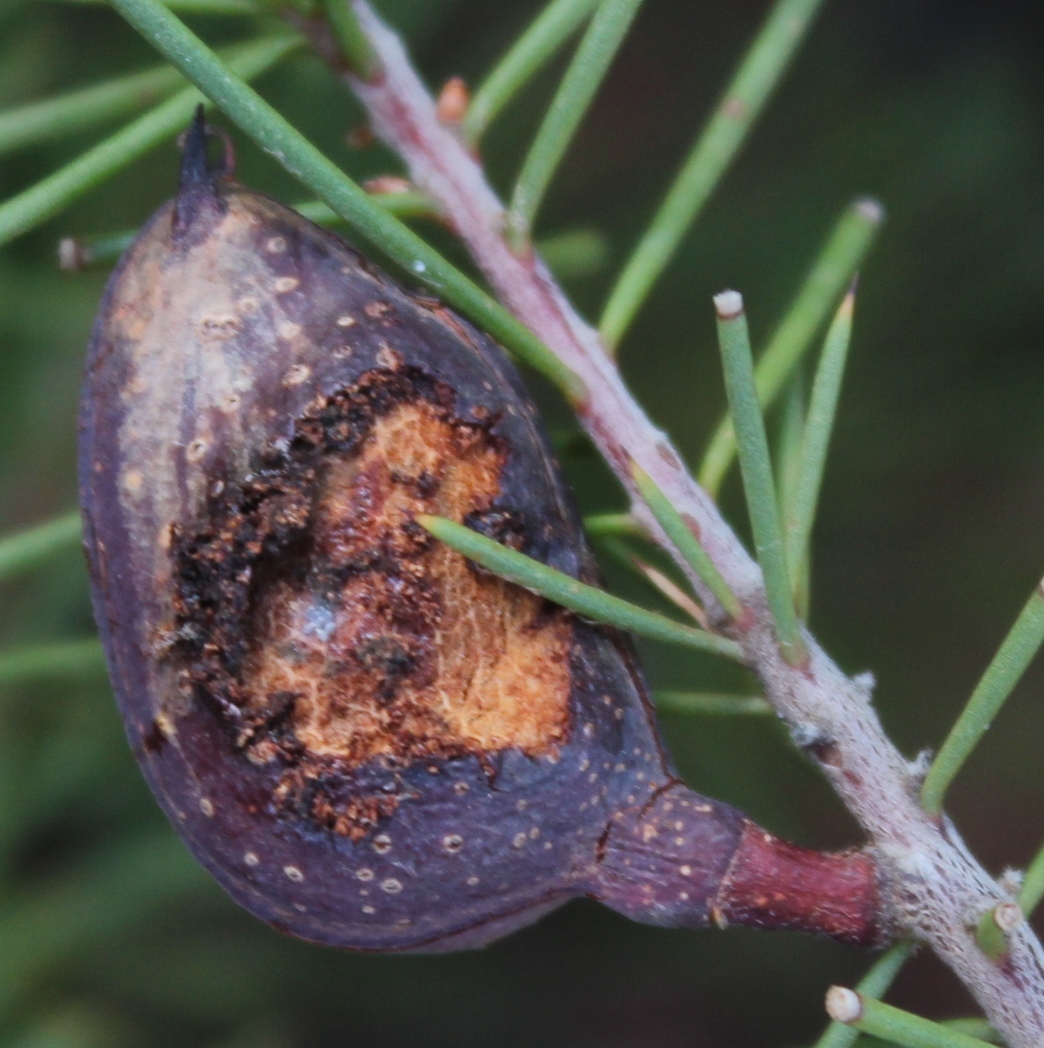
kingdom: Plantae
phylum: Tracheophyta
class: Magnoliopsida
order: Proteales
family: Proteaceae
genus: Hakea
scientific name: Hakea sericea
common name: Needle bush
